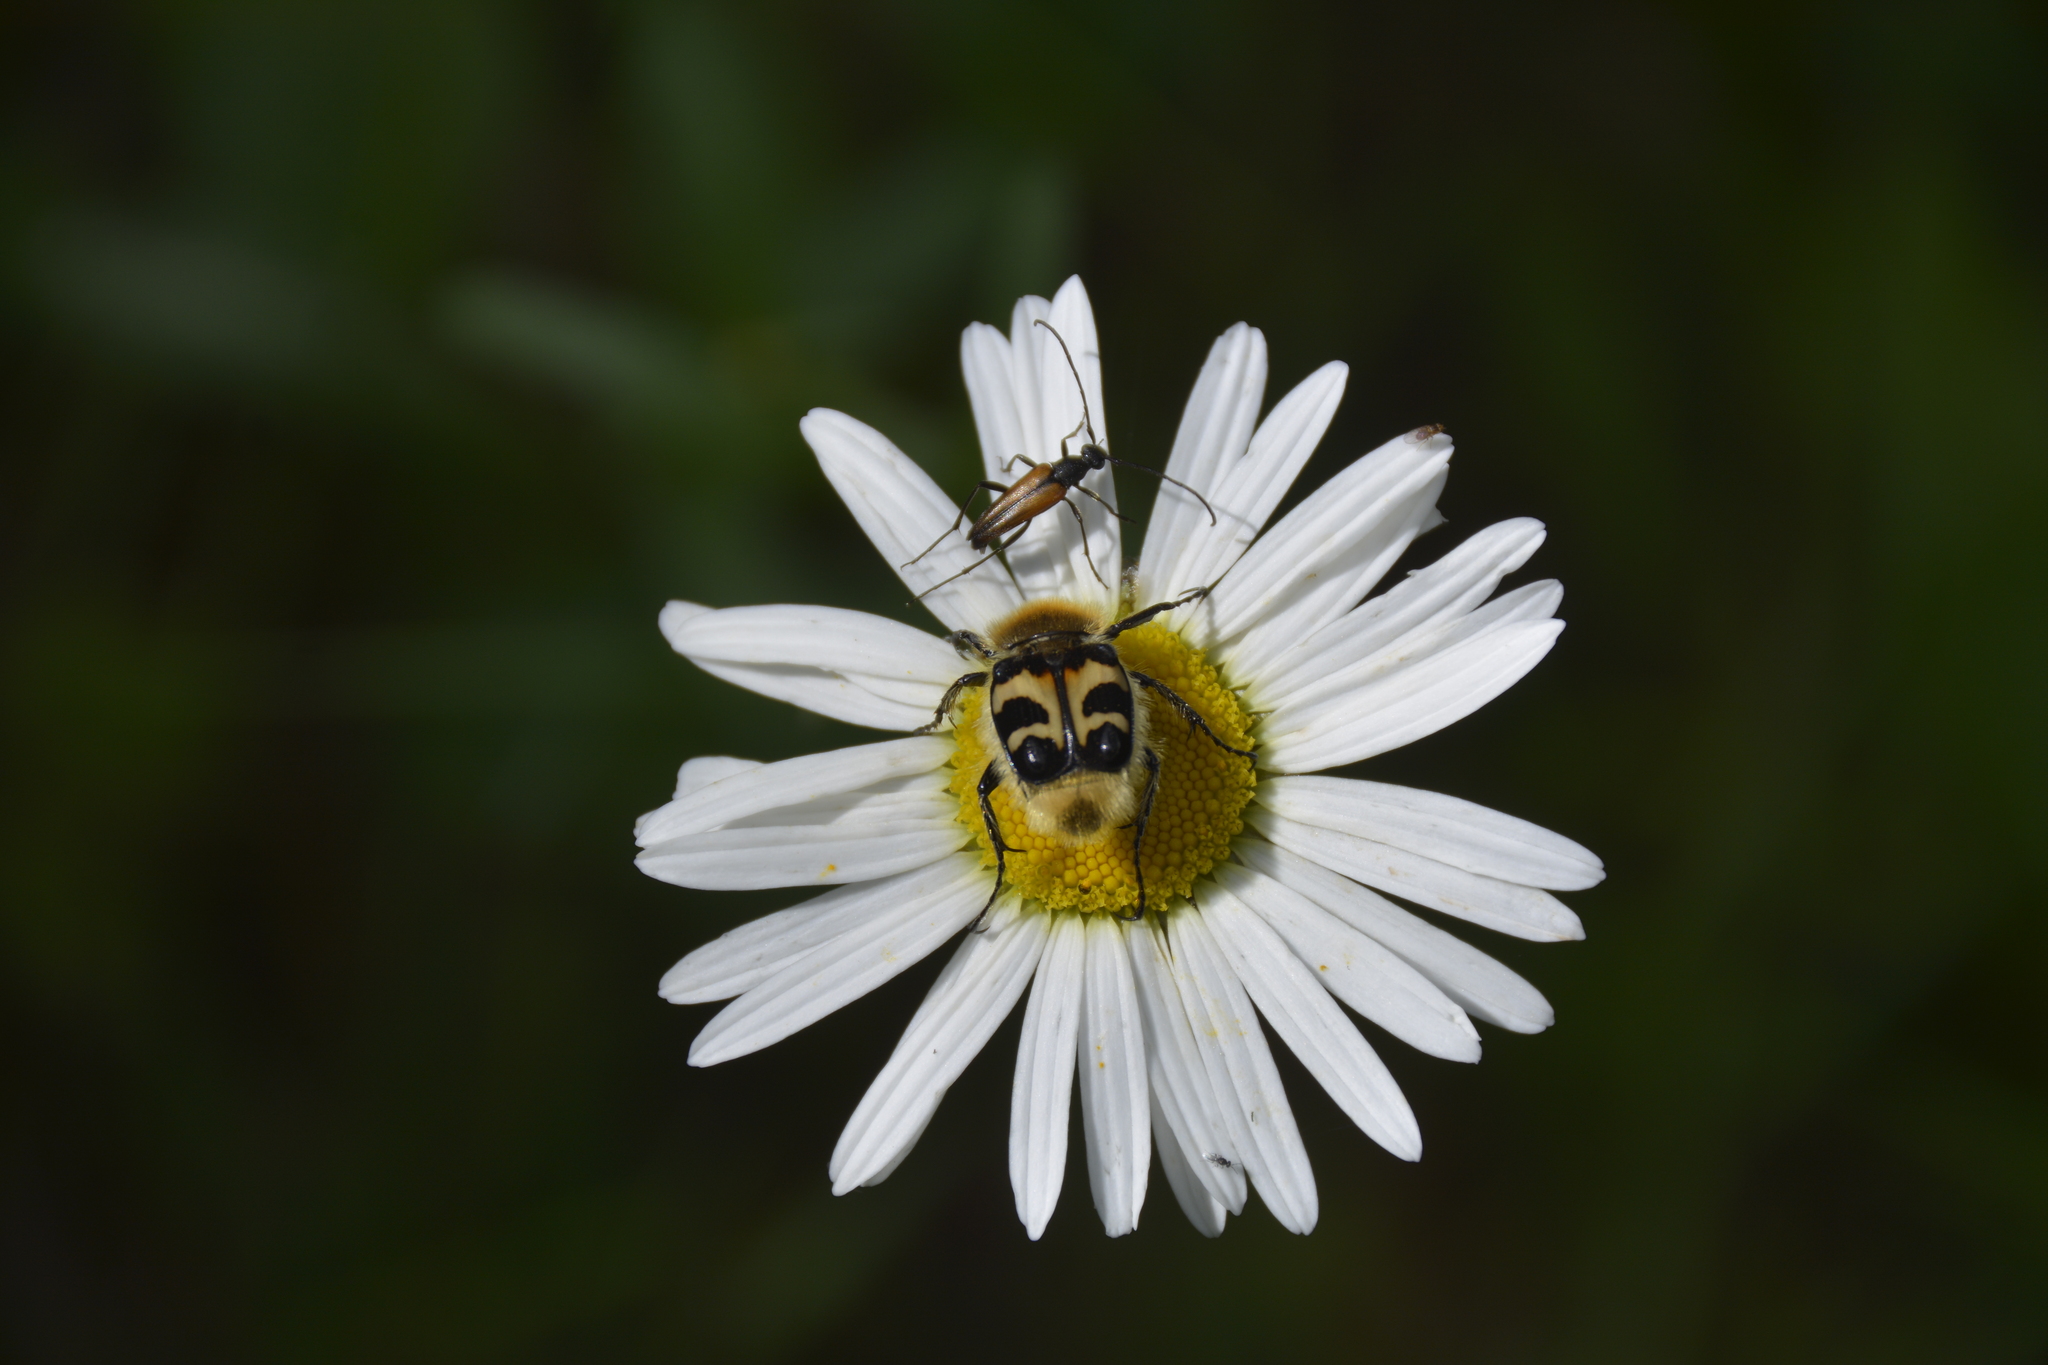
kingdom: Animalia
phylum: Arthropoda
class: Insecta
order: Coleoptera
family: Scarabaeidae
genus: Trichius
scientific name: Trichius fasciatus
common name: Bee beetle
